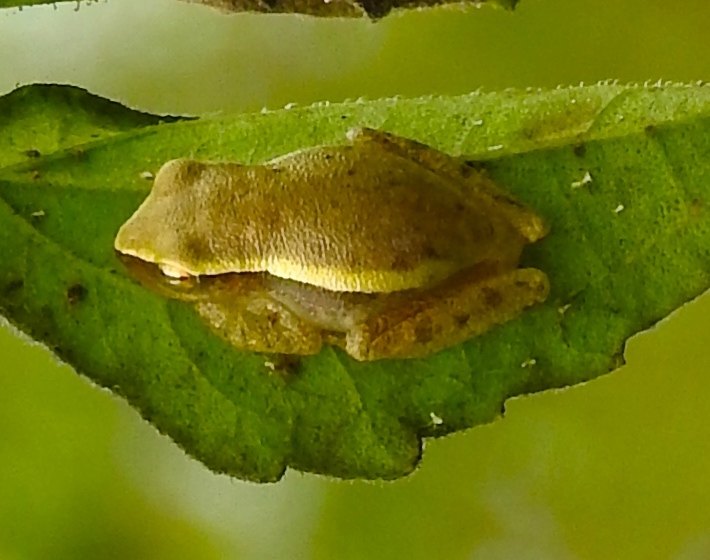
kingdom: Animalia
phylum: Chordata
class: Amphibia
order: Anura
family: Hylidae
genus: Tlalocohyla
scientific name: Tlalocohyla smithii
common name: Dwarf mexican treefrog
